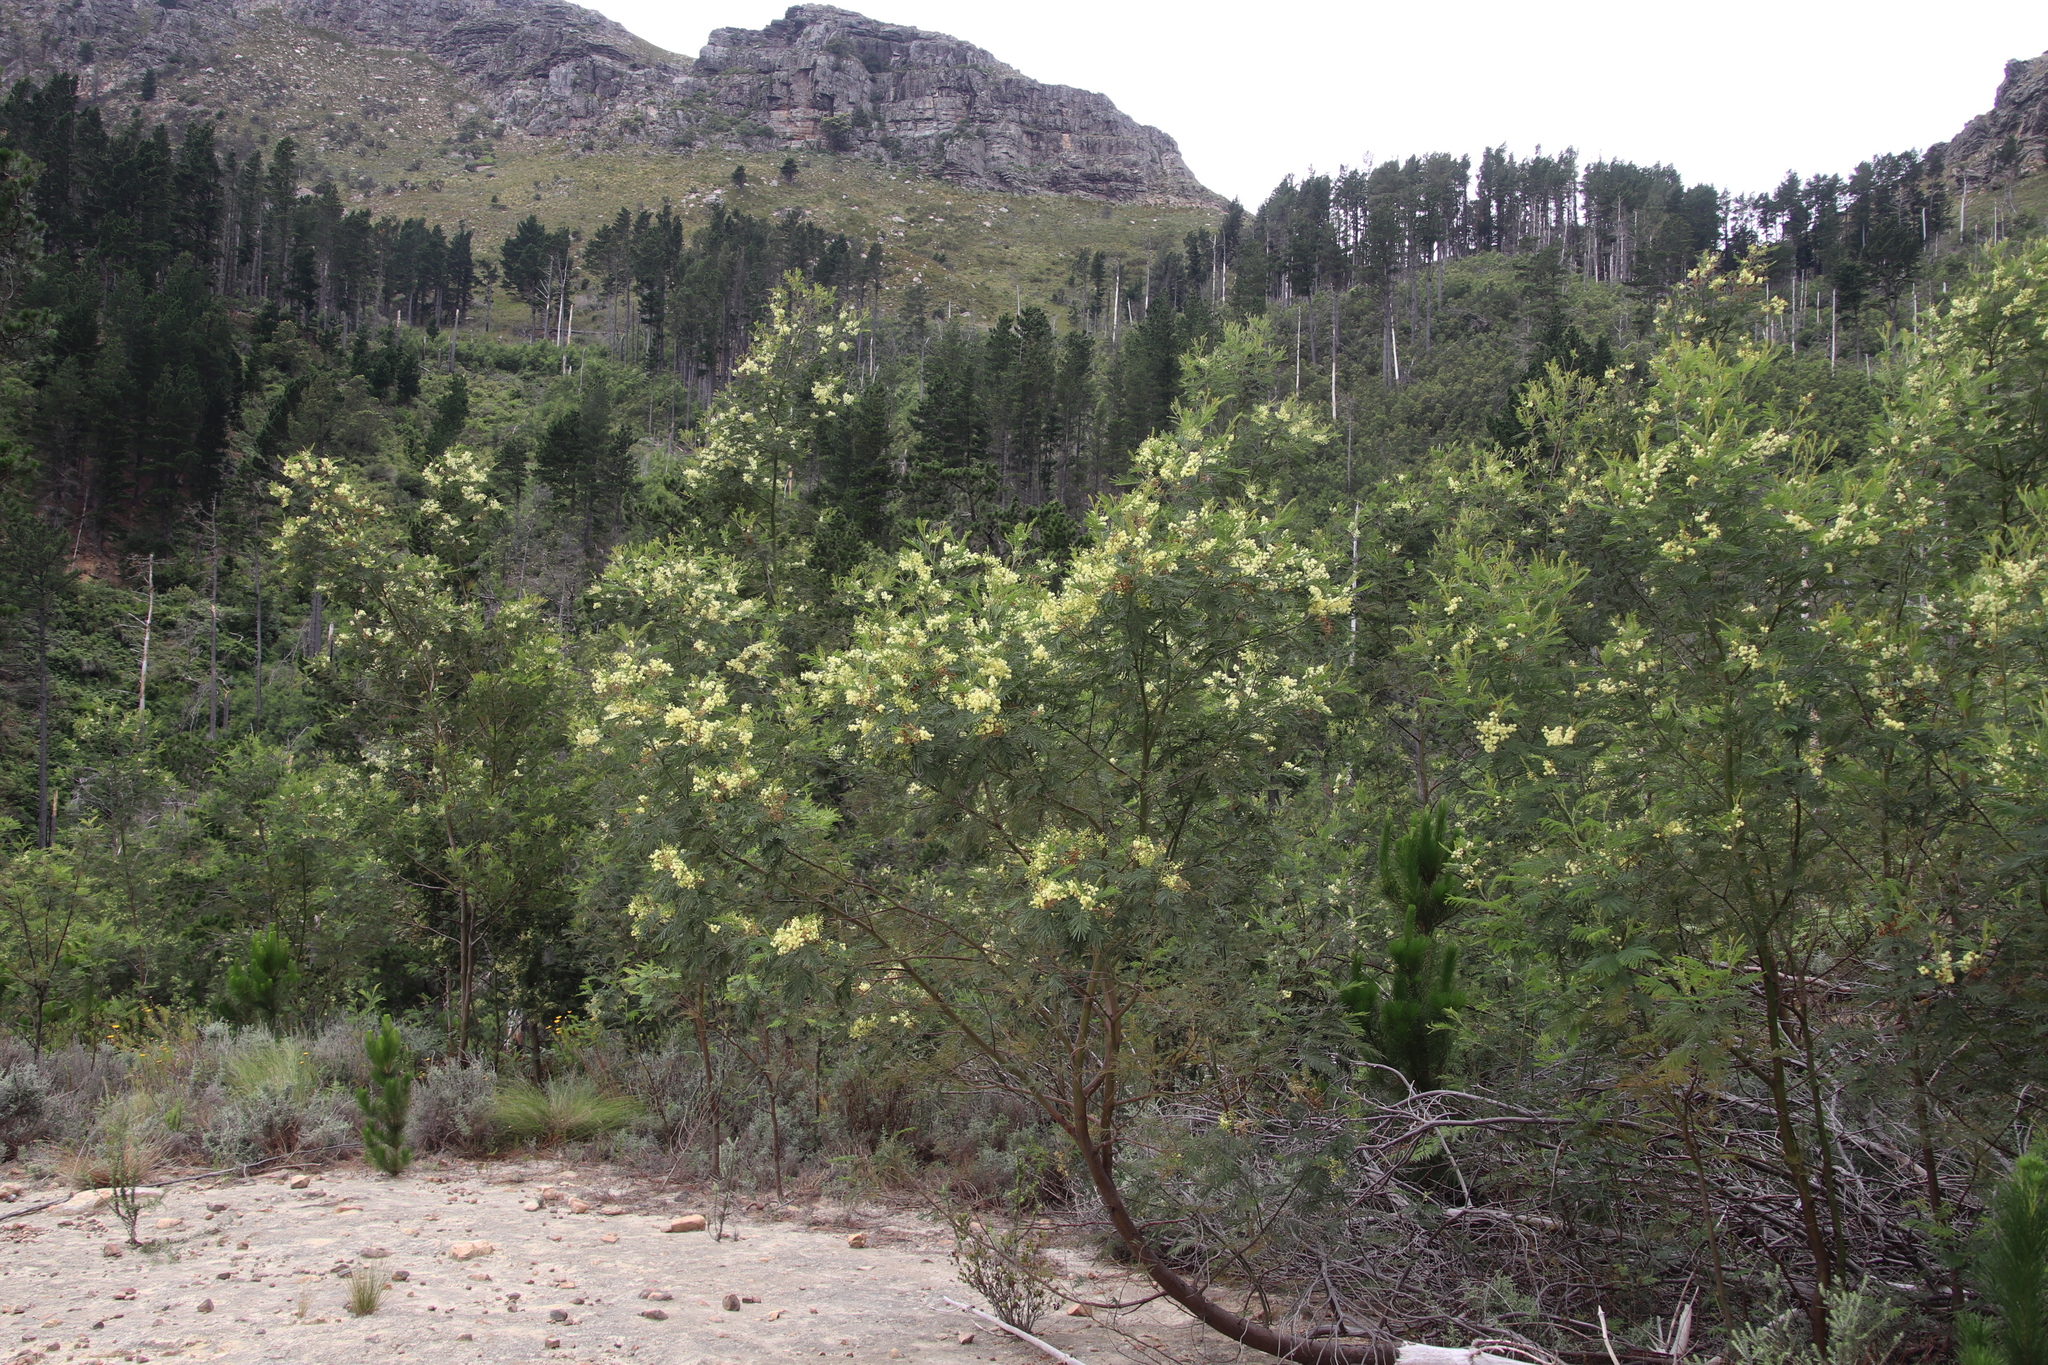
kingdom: Plantae
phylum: Tracheophyta
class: Magnoliopsida
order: Fabales
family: Fabaceae
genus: Acacia
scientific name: Acacia mearnsii
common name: Black wattle
